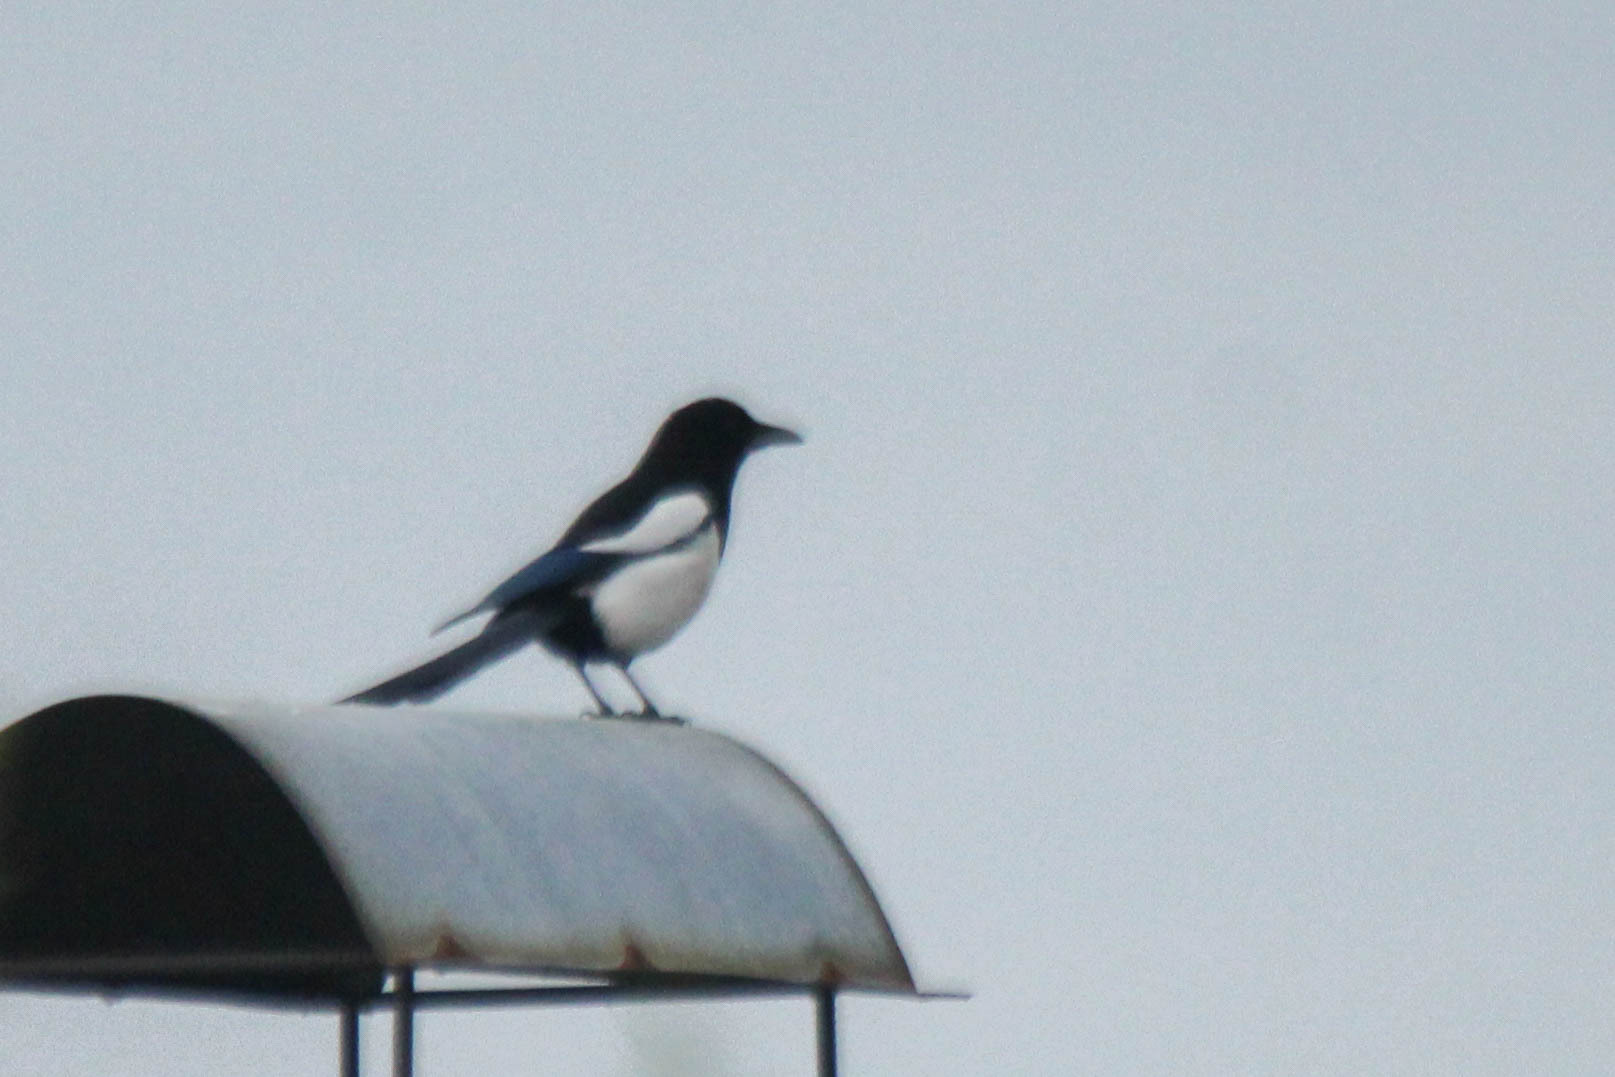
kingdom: Animalia
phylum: Chordata
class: Aves
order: Passeriformes
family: Corvidae
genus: Pica
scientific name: Pica pica
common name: Eurasian magpie
